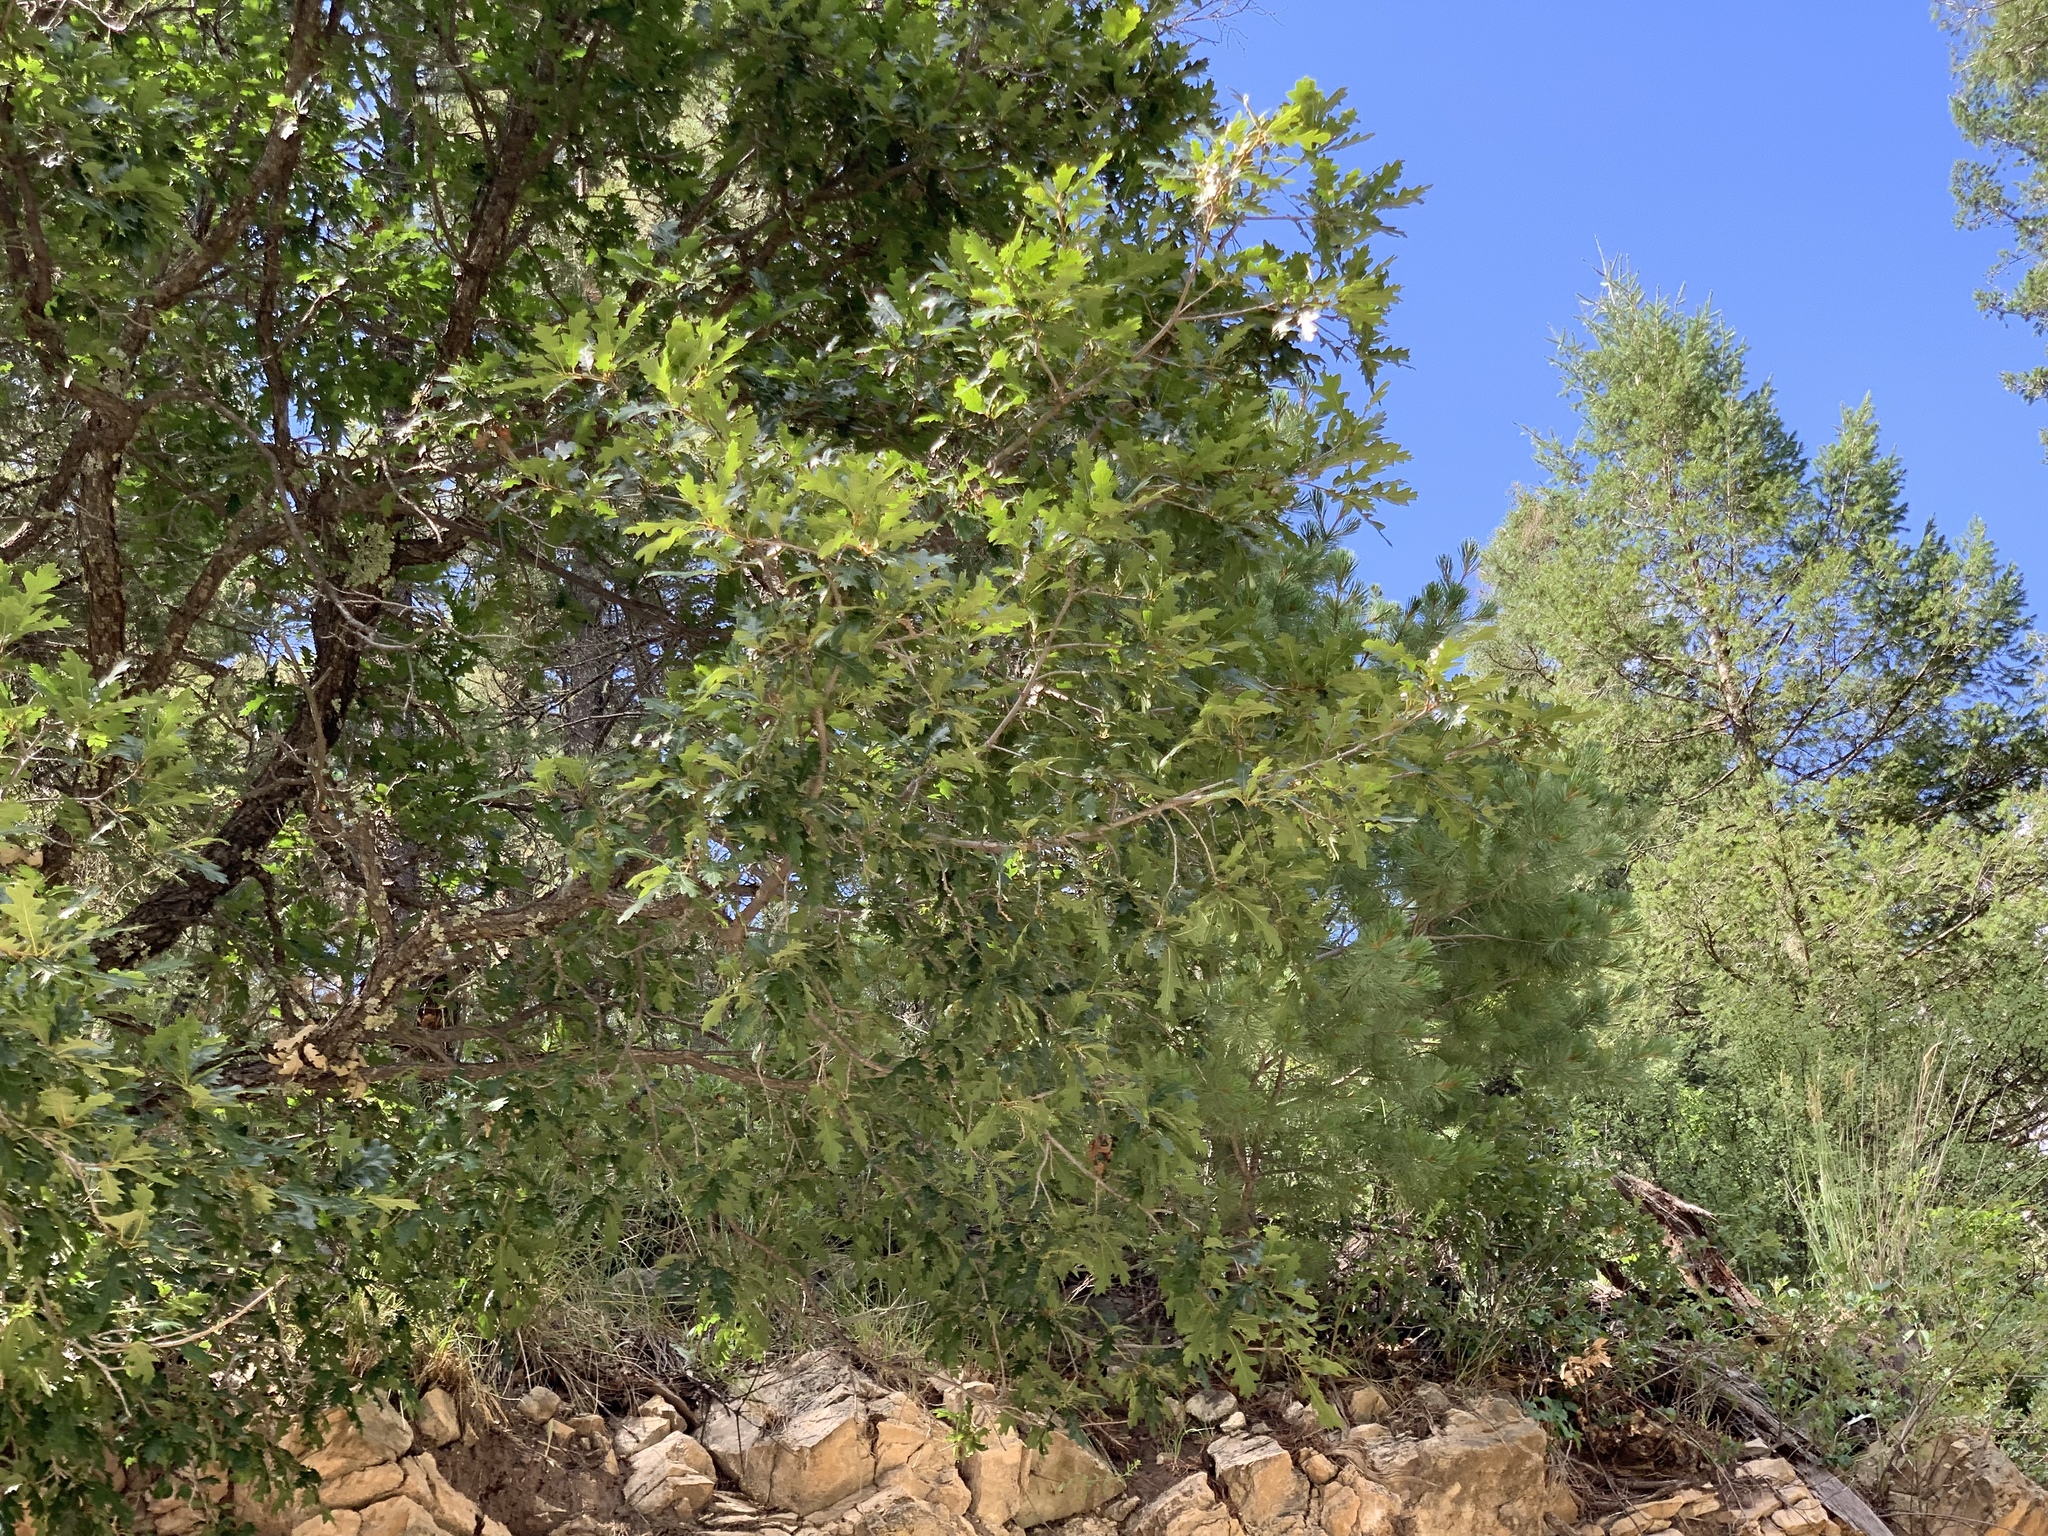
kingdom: Plantae
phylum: Tracheophyta
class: Magnoliopsida
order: Fagales
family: Fagaceae
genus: Quercus
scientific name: Quercus gambelii
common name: Gambel oak
